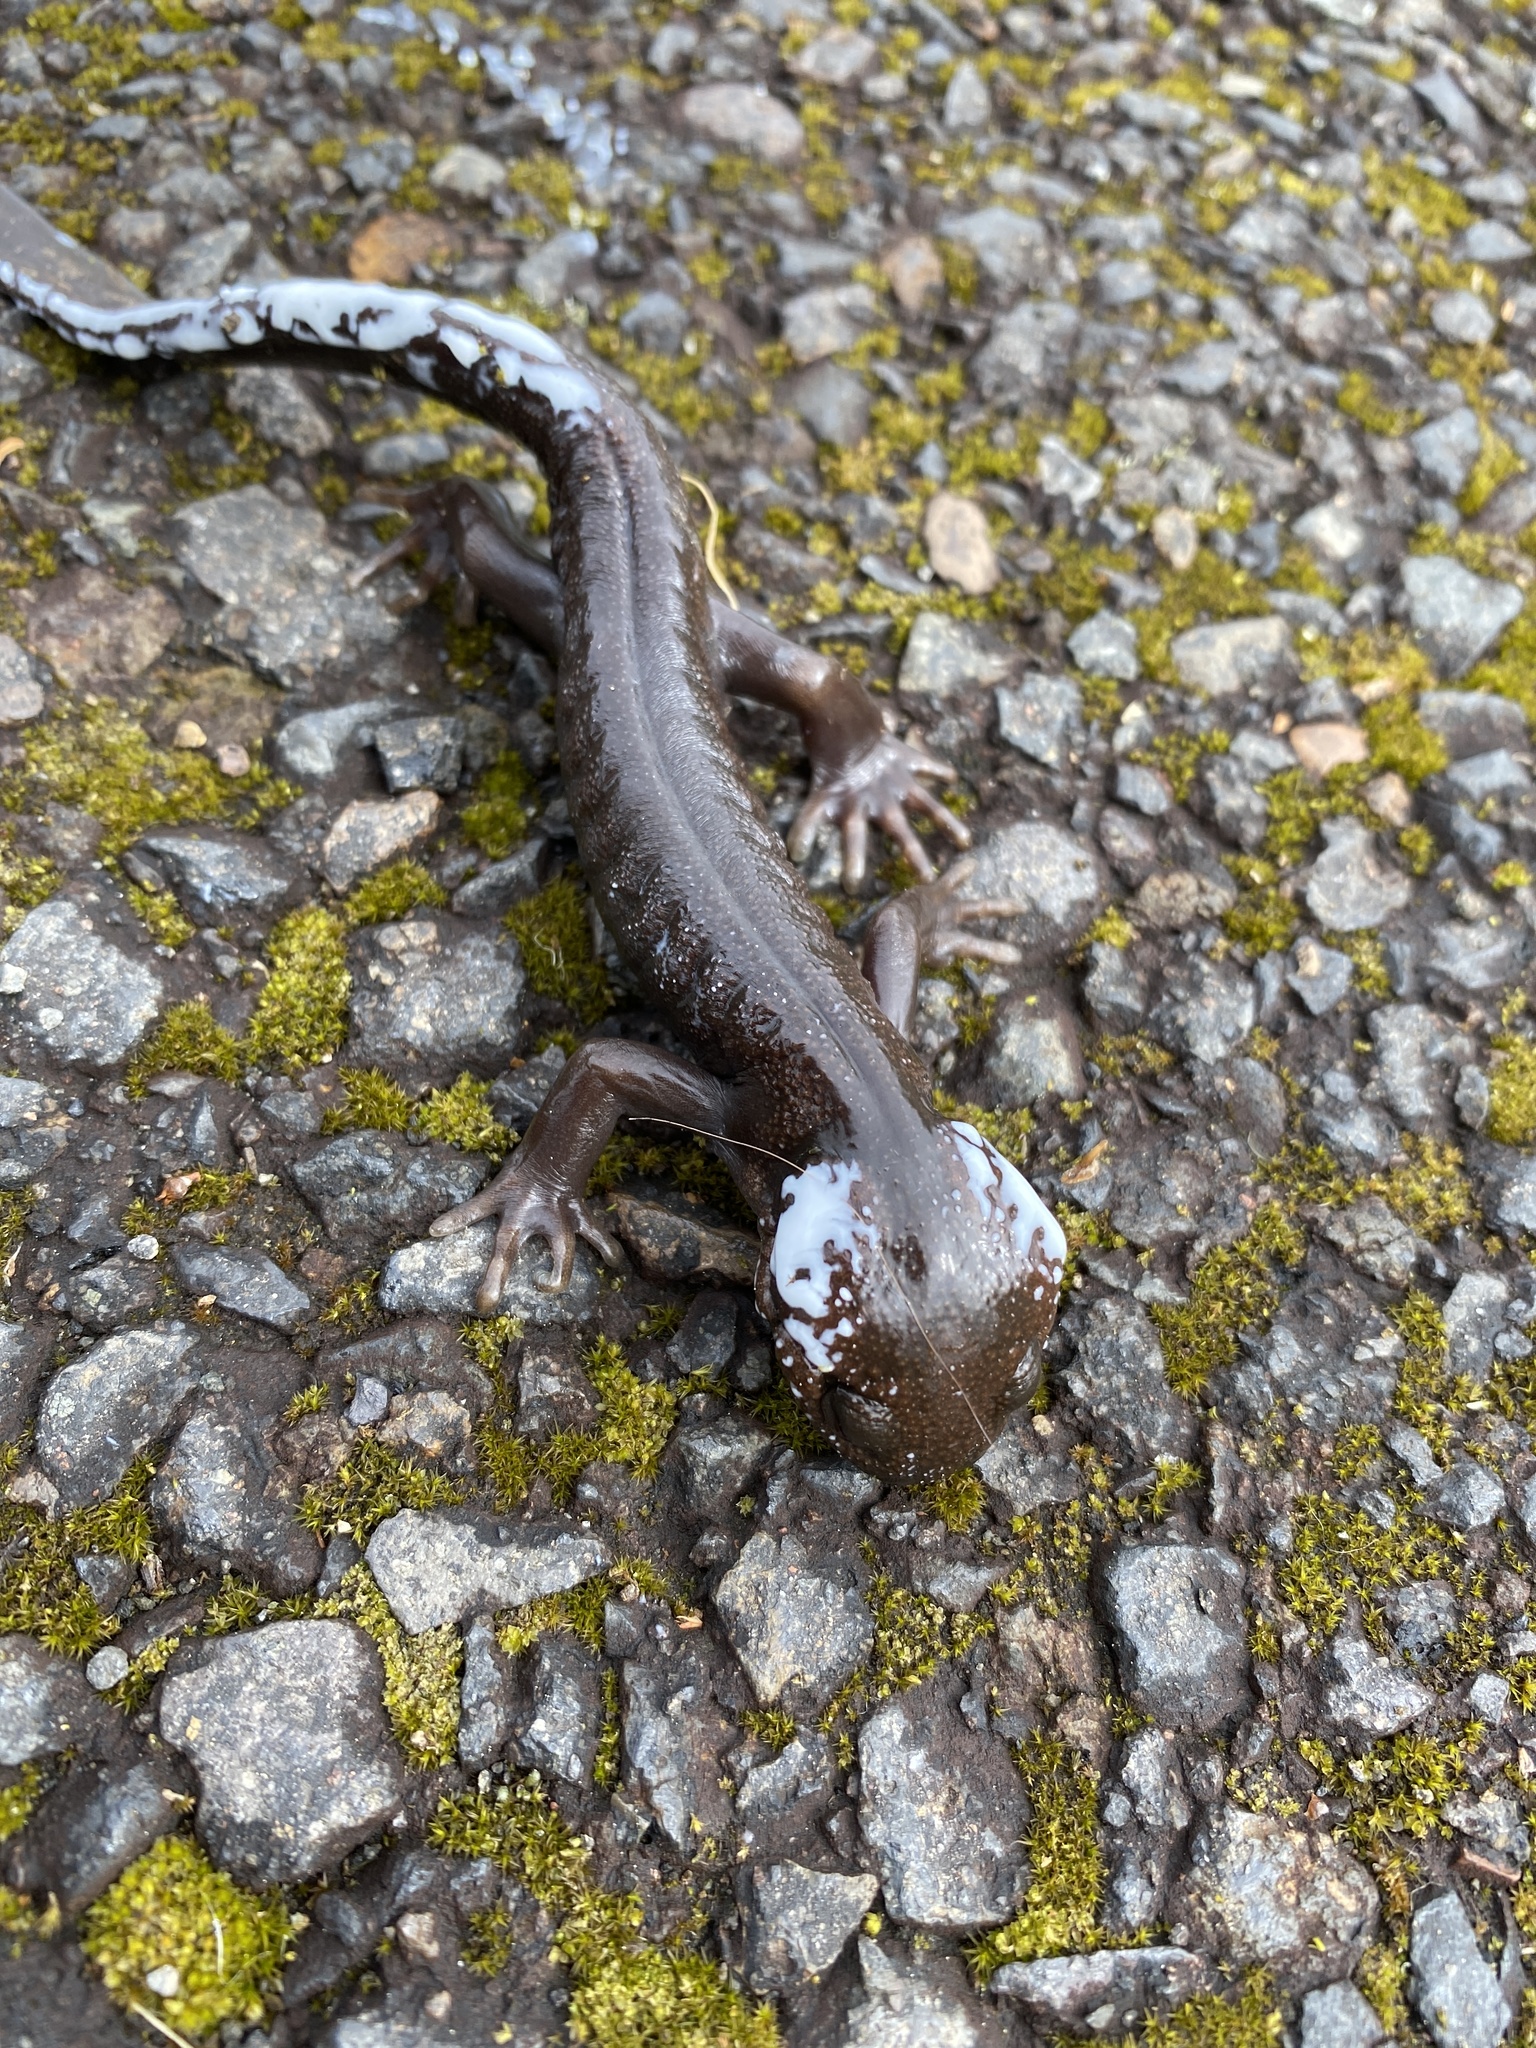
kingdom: Animalia
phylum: Chordata
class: Amphibia
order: Caudata
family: Ambystomatidae
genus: Ambystoma
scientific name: Ambystoma gracile
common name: Northwestern salamander
